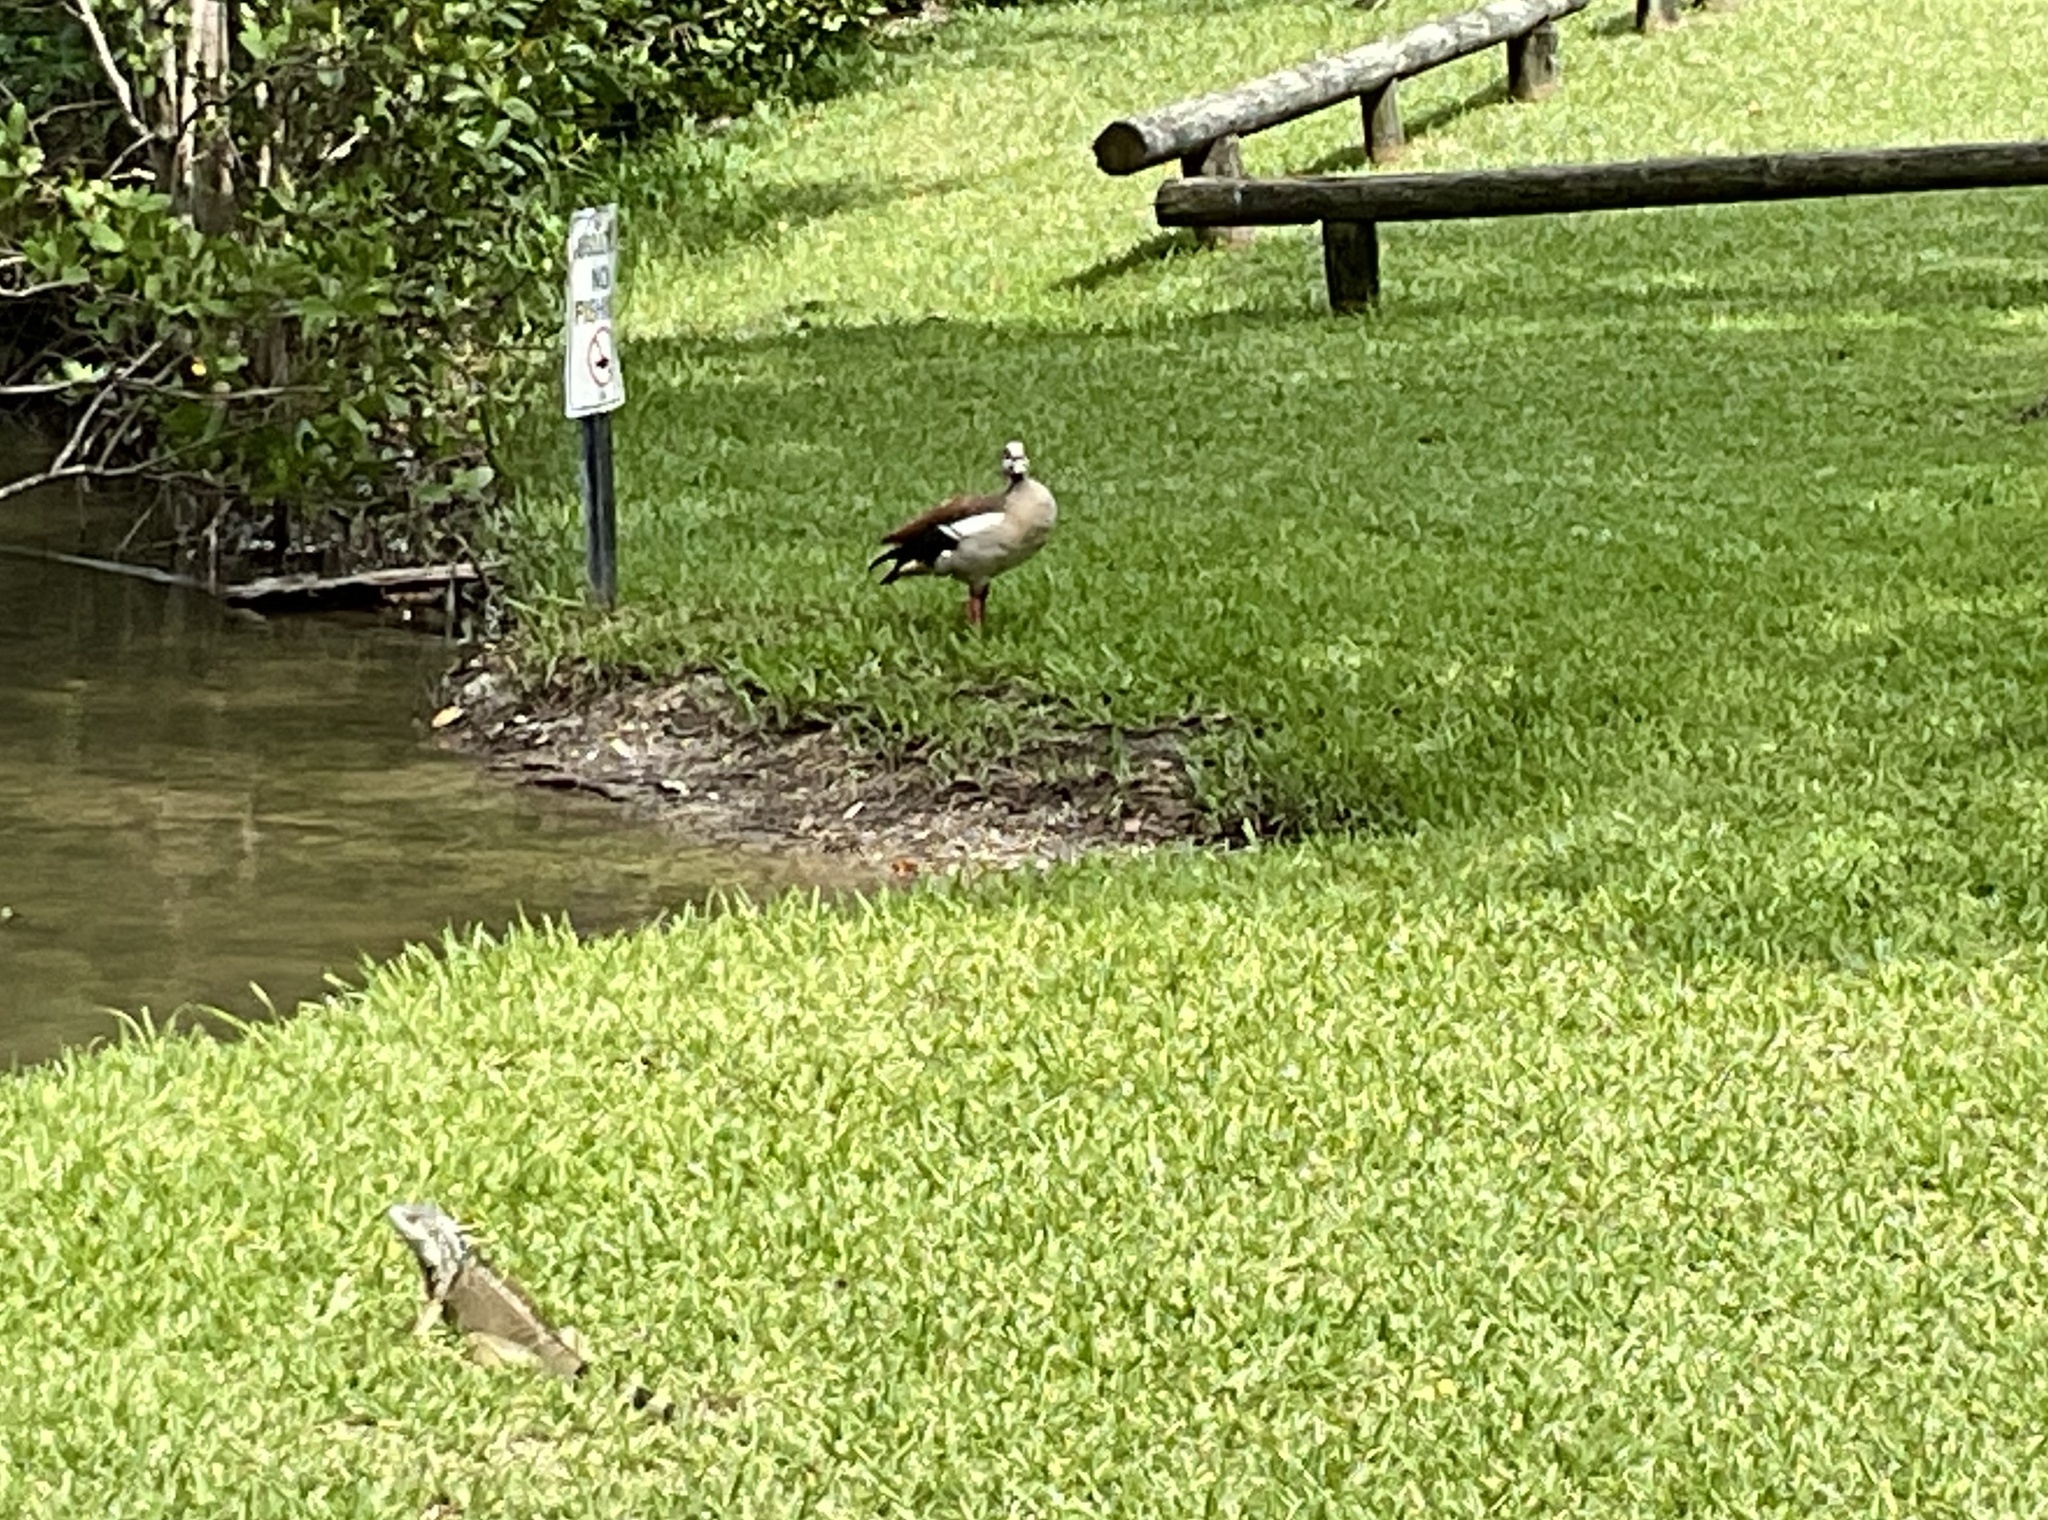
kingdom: Animalia
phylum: Chordata
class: Aves
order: Anseriformes
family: Anatidae
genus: Alopochen
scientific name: Alopochen aegyptiaca
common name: Egyptian goose
